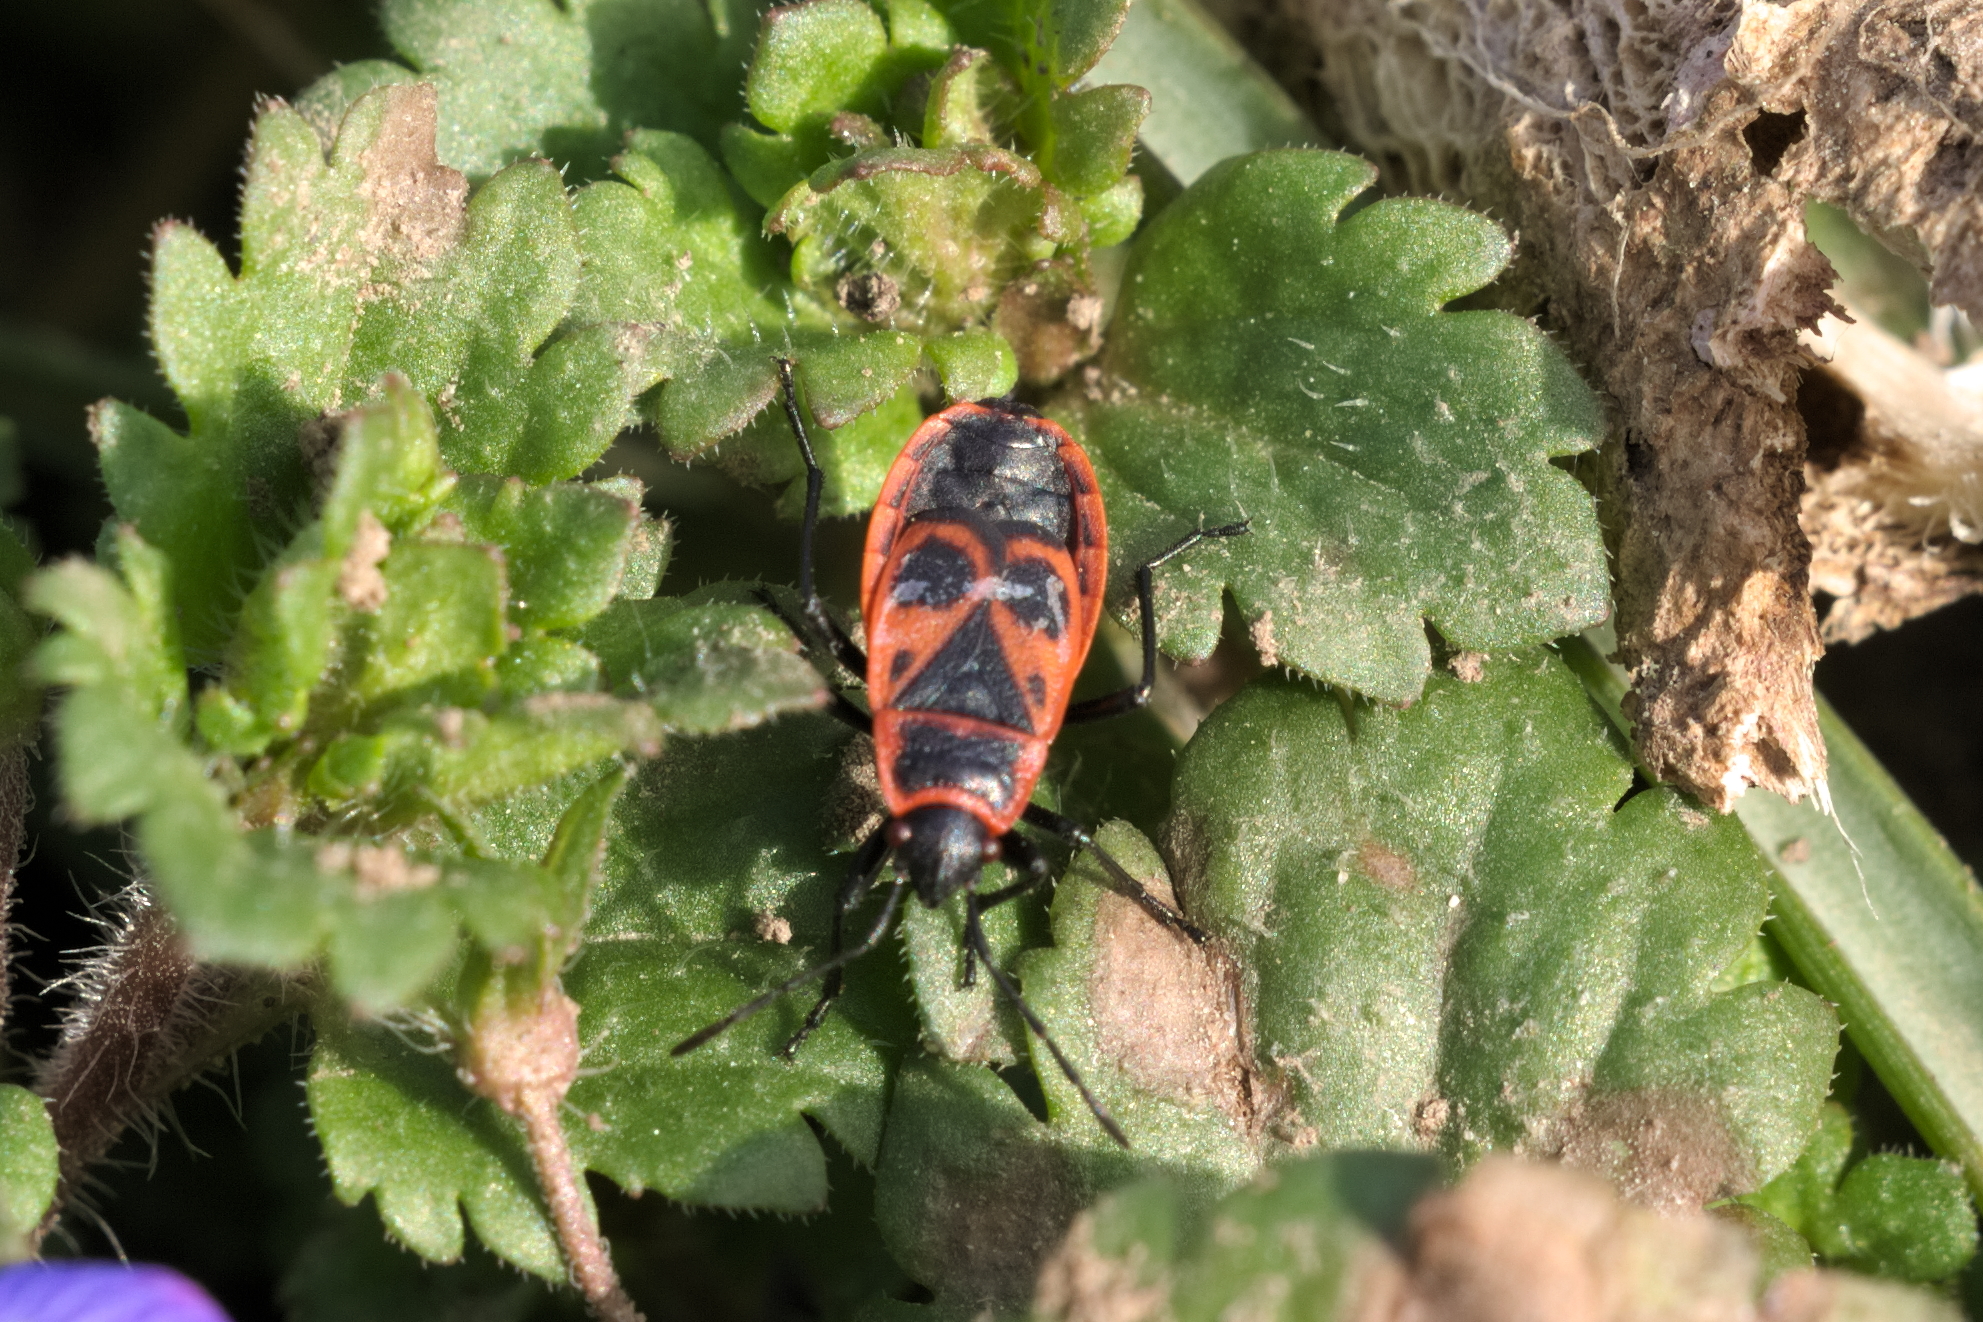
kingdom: Animalia
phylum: Arthropoda
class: Insecta
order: Hemiptera
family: Pyrrhocoridae
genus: Pyrrhocoris
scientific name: Pyrrhocoris apterus
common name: Firebug
